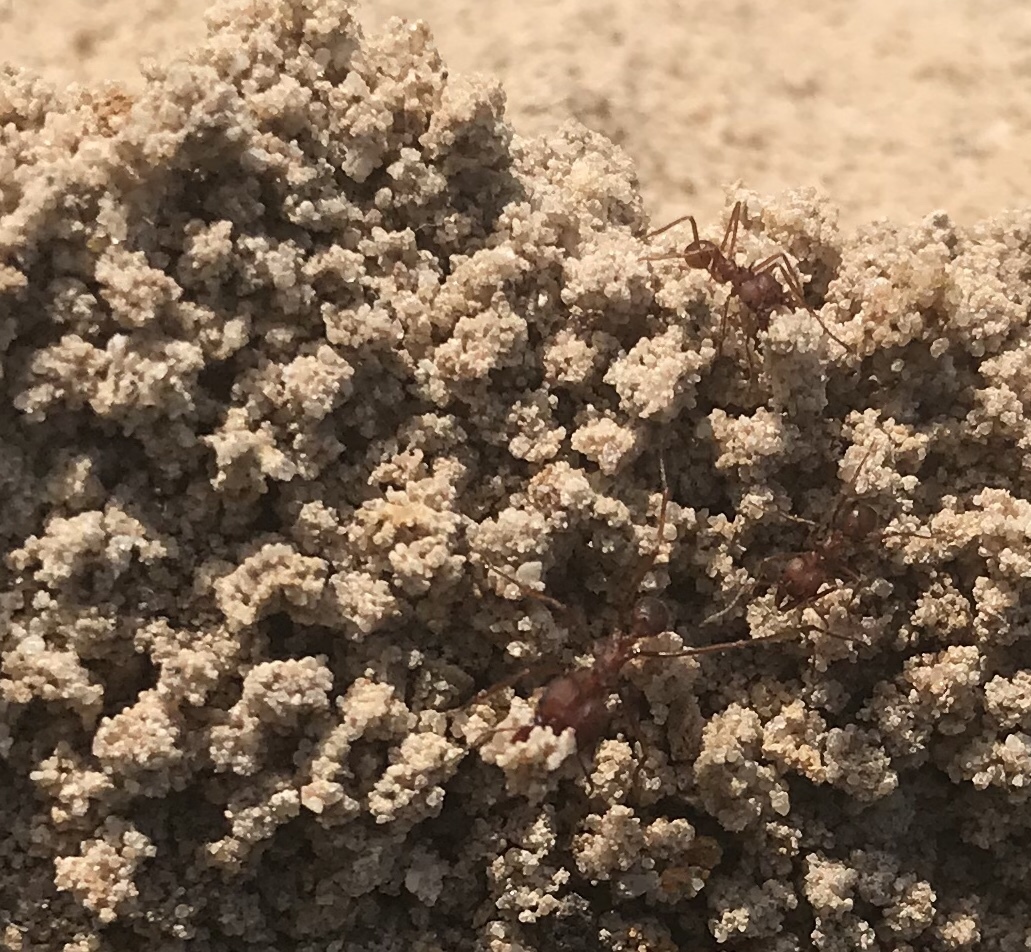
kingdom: Animalia
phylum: Arthropoda
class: Insecta
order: Hymenoptera
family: Formicidae
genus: Atta
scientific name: Atta texana
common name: Texas leafcutting ant
